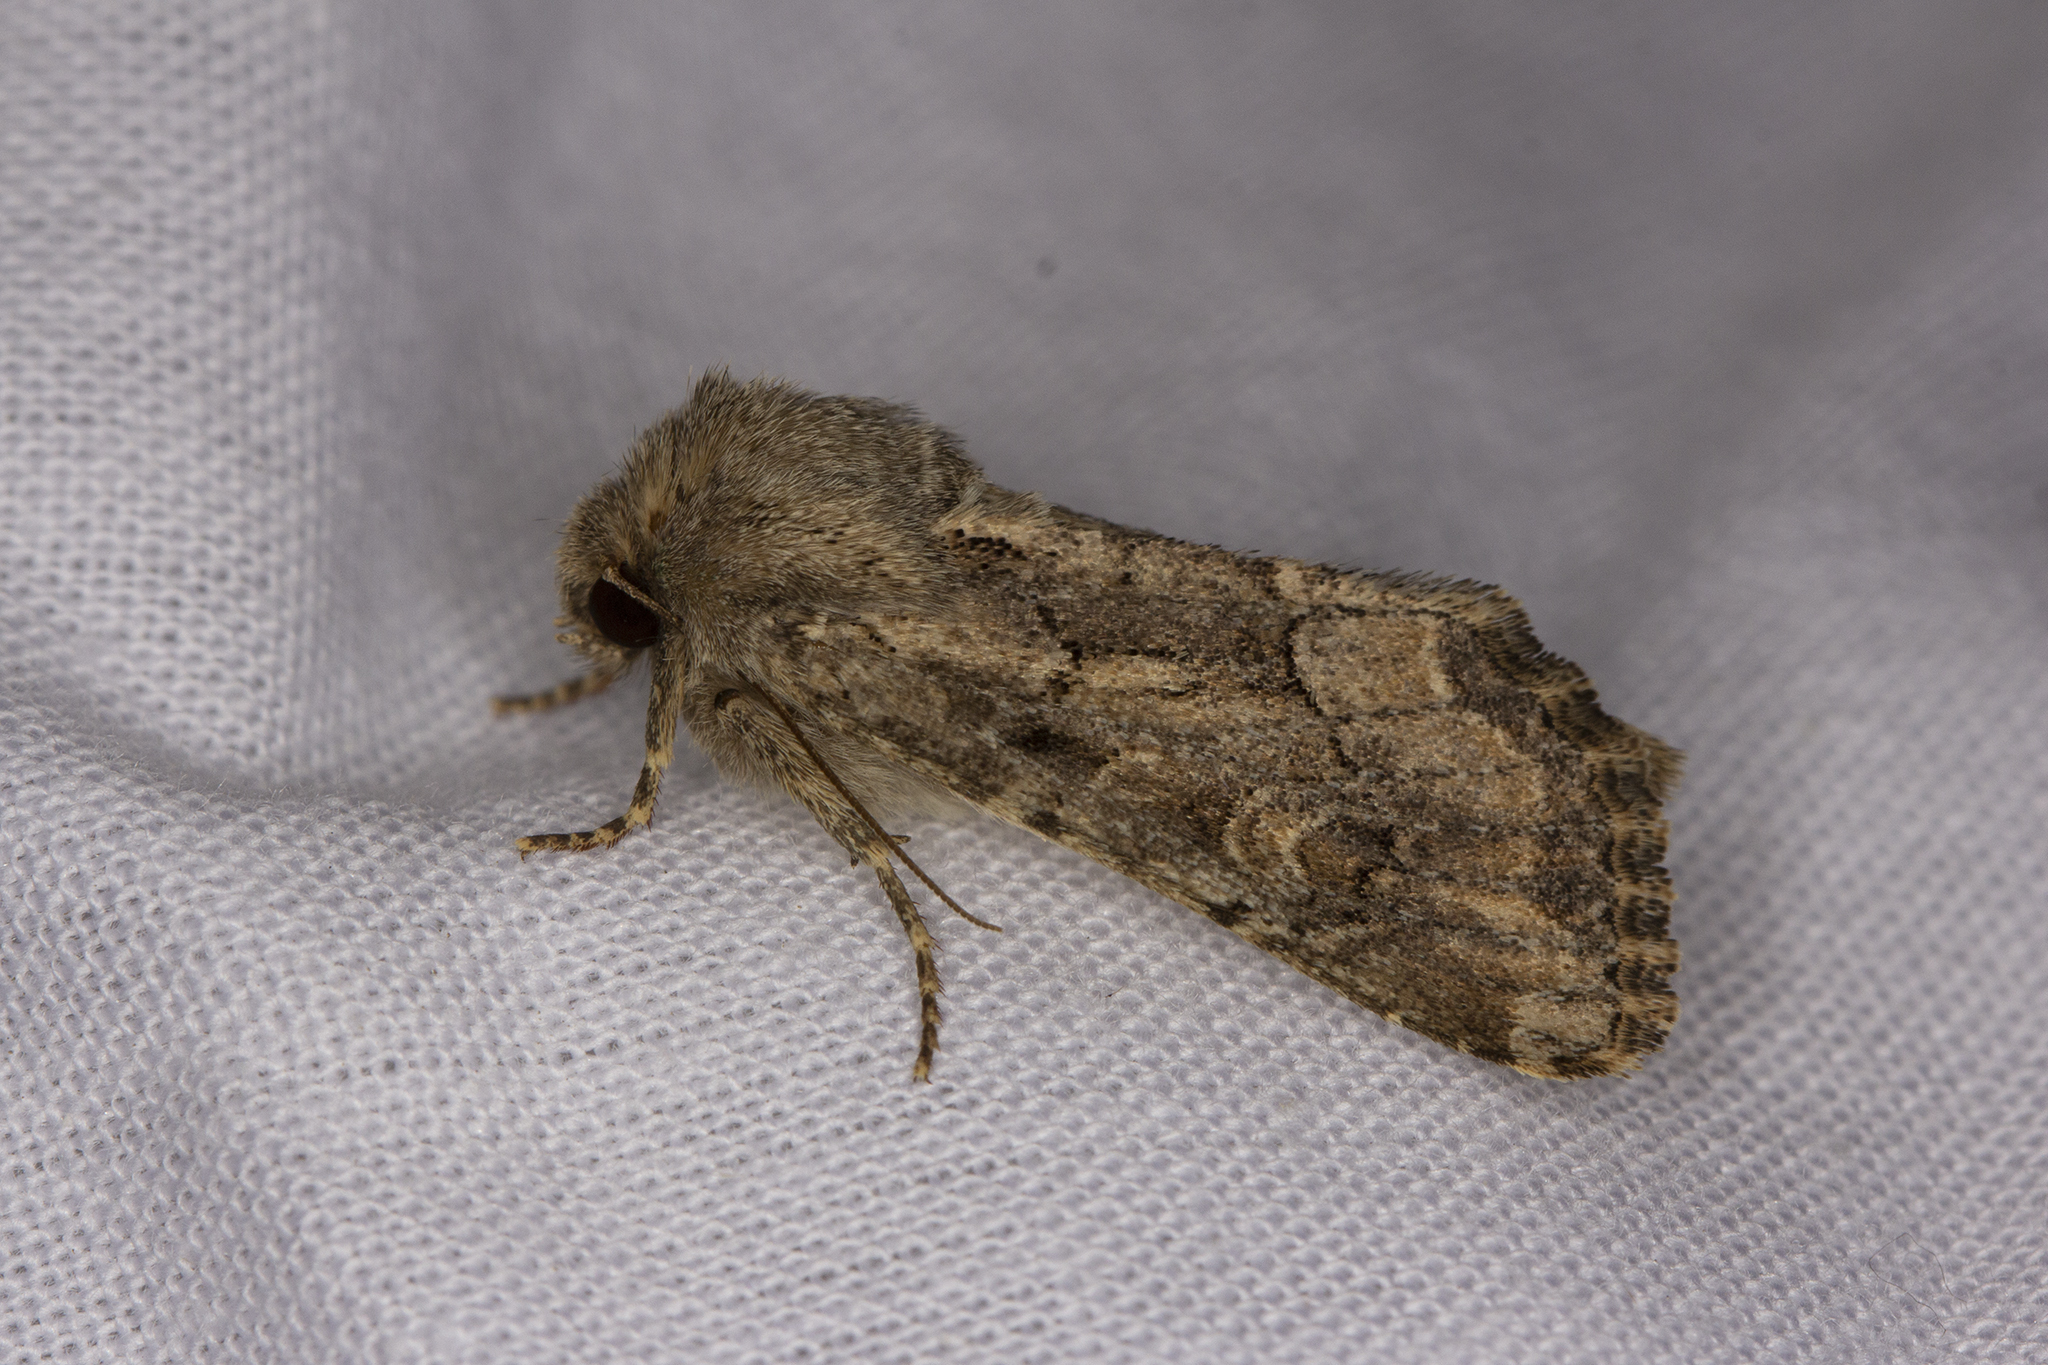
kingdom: Animalia
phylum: Arthropoda
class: Insecta
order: Lepidoptera
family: Noctuidae
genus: Luperina
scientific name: Luperina testacea
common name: Flounced rustic
